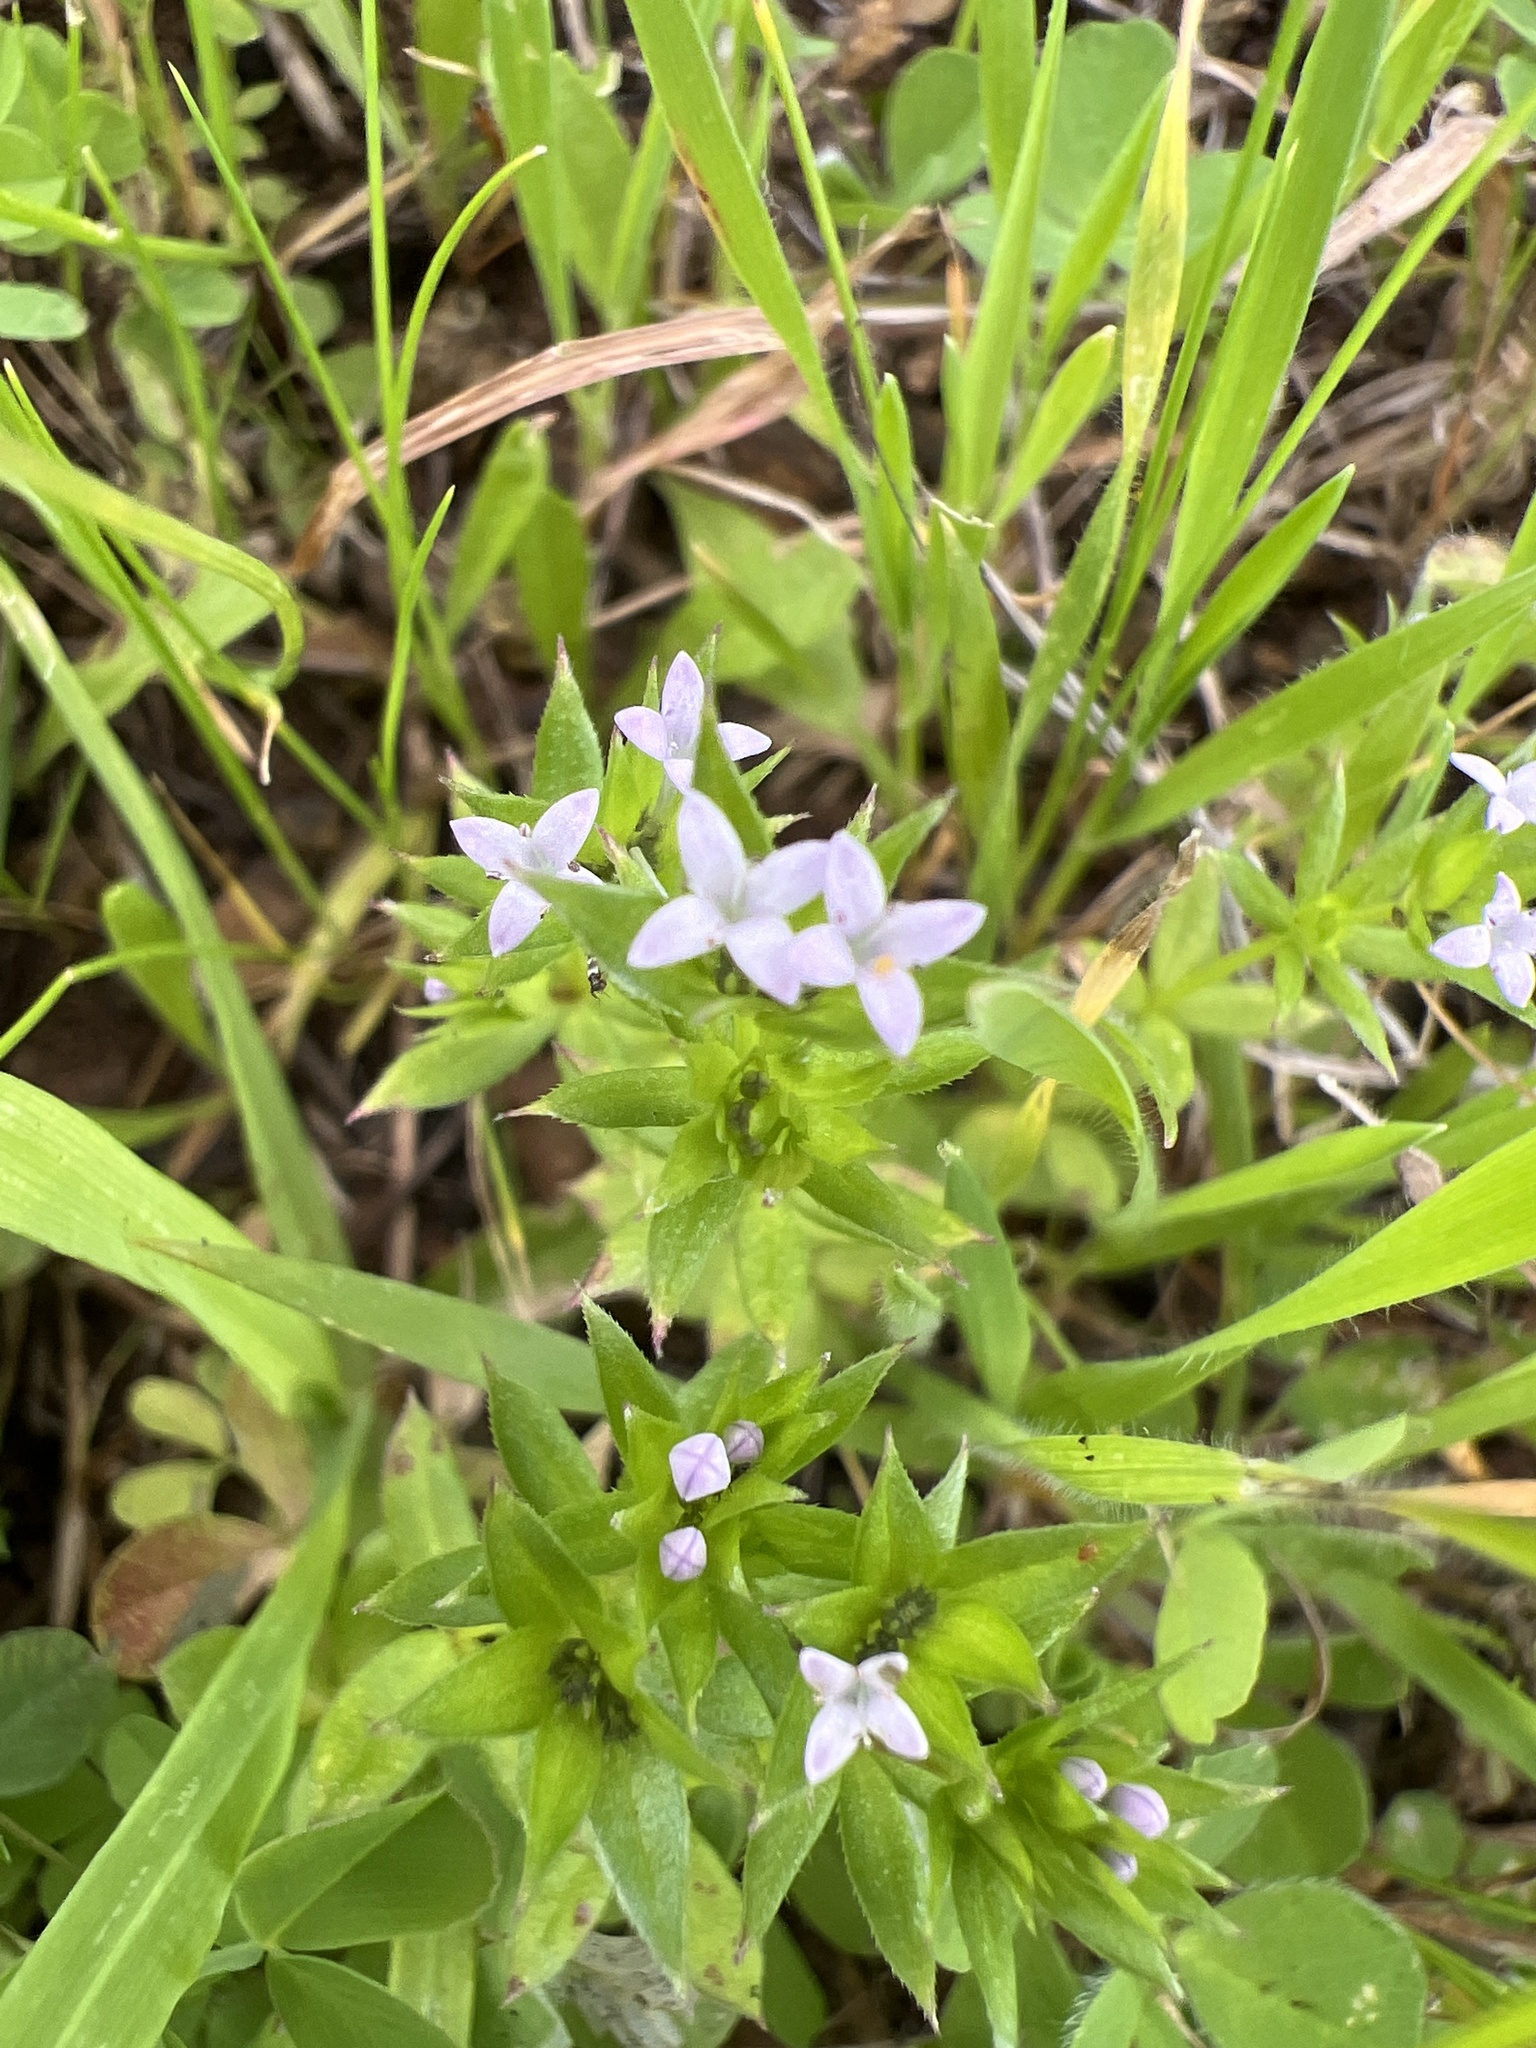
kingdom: Plantae
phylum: Tracheophyta
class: Magnoliopsida
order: Gentianales
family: Rubiaceae
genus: Sherardia
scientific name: Sherardia arvensis
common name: Field madder
